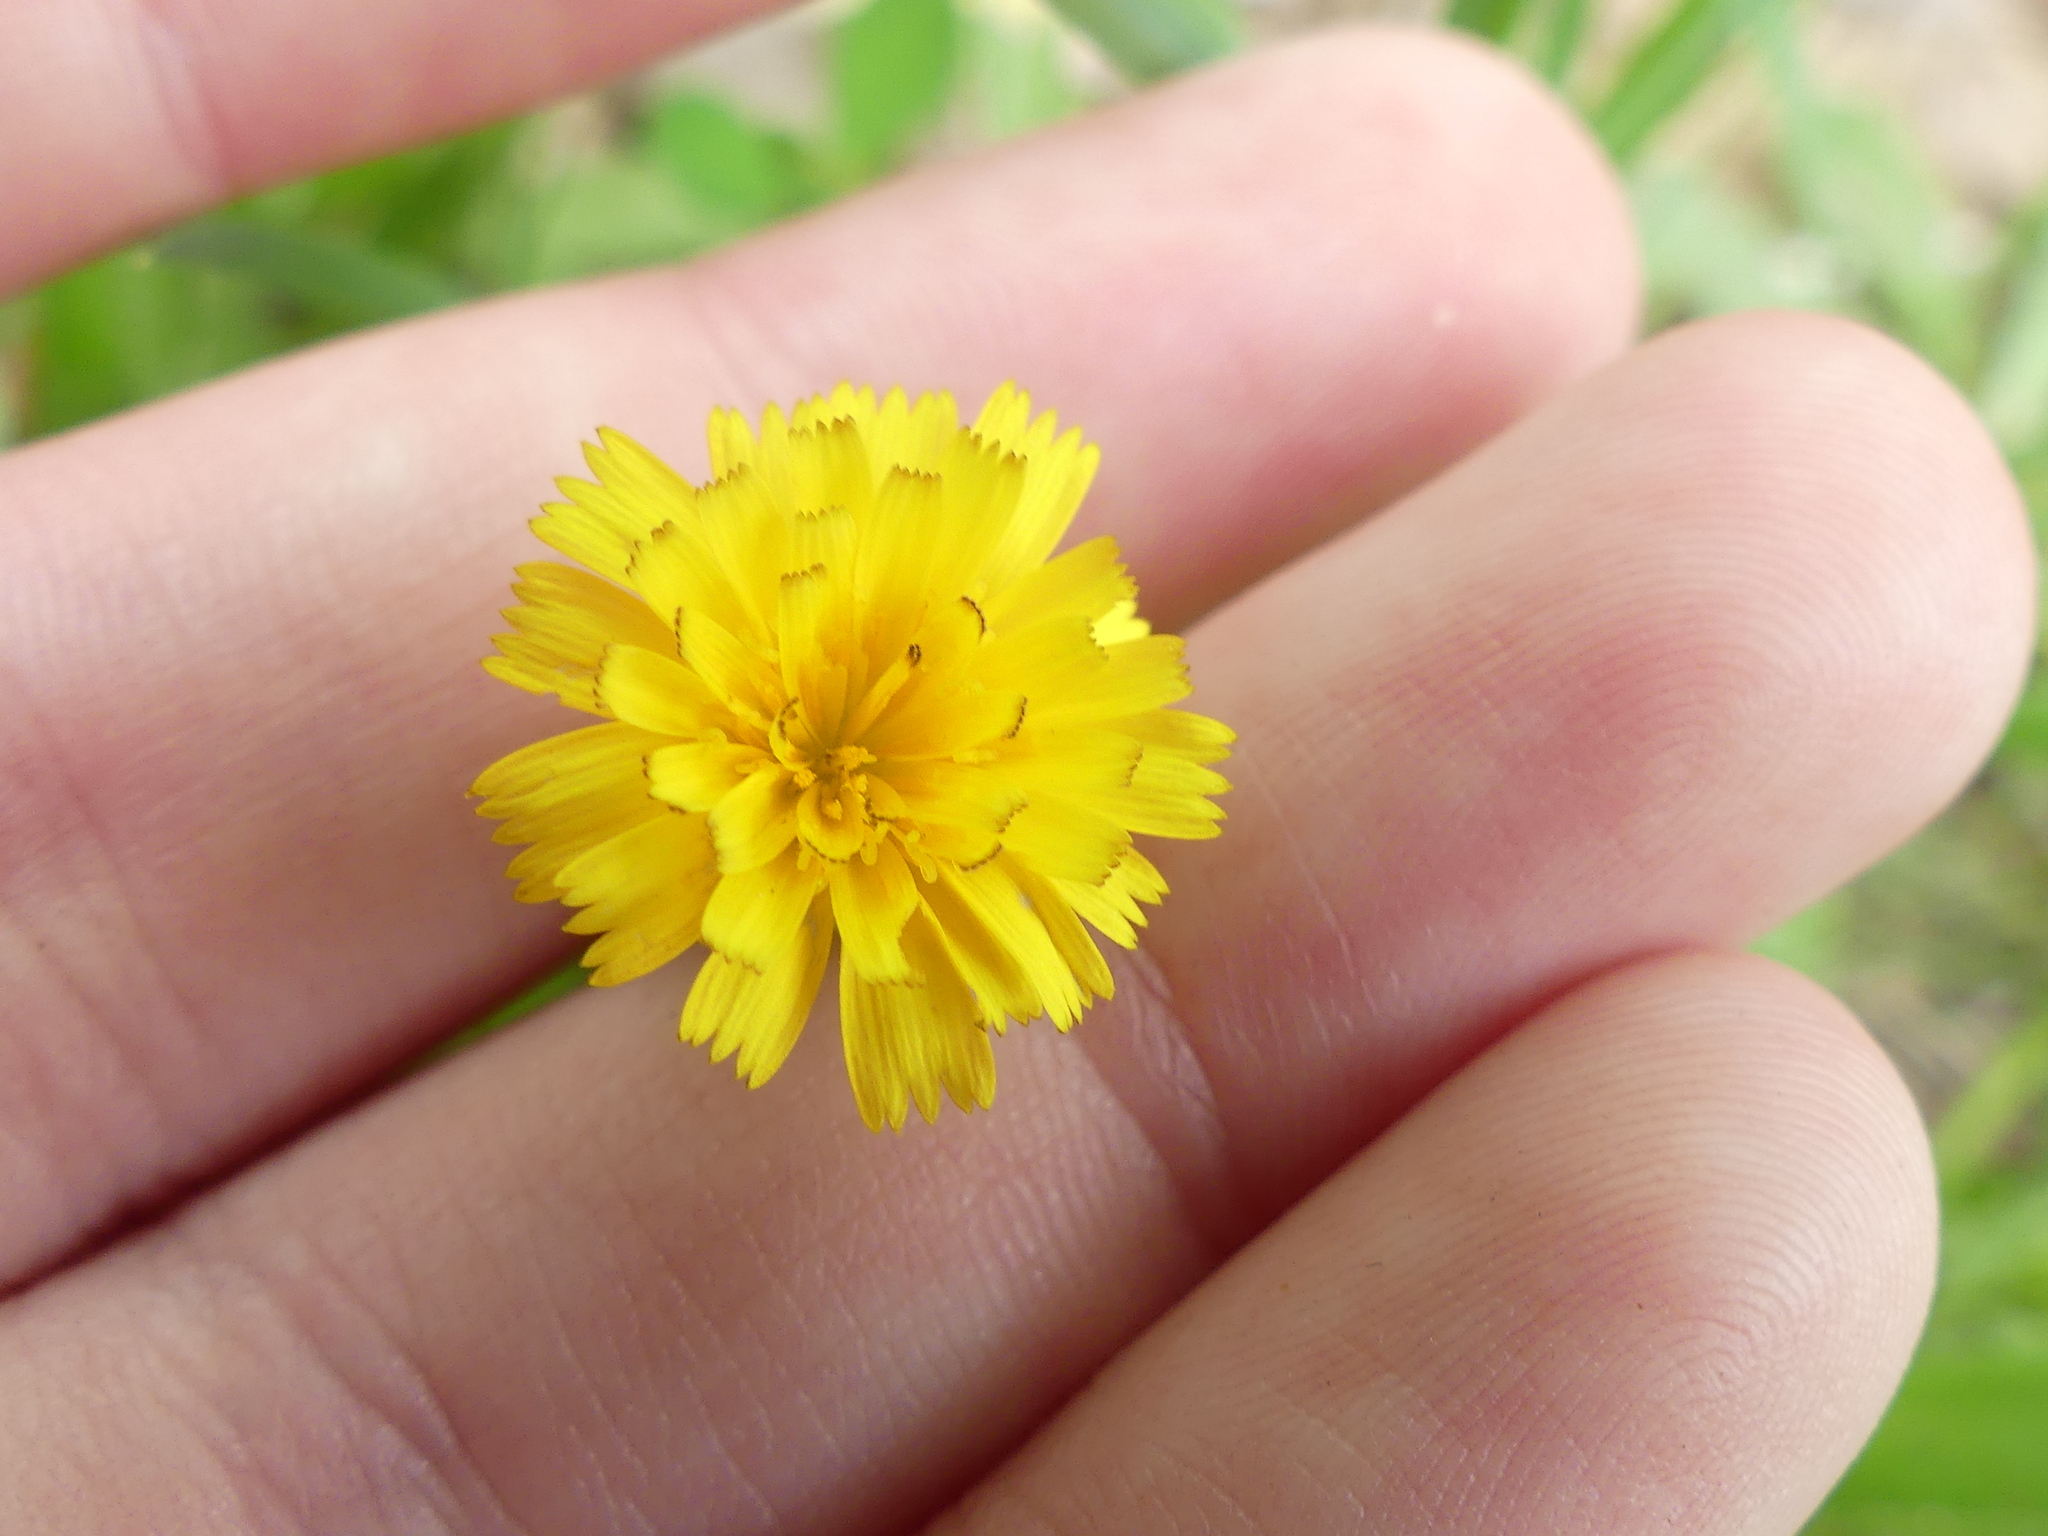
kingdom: Plantae
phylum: Tracheophyta
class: Magnoliopsida
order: Asterales
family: Asteraceae
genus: Hedypnois
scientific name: Hedypnois rhagadioloides
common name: Cretan weed
